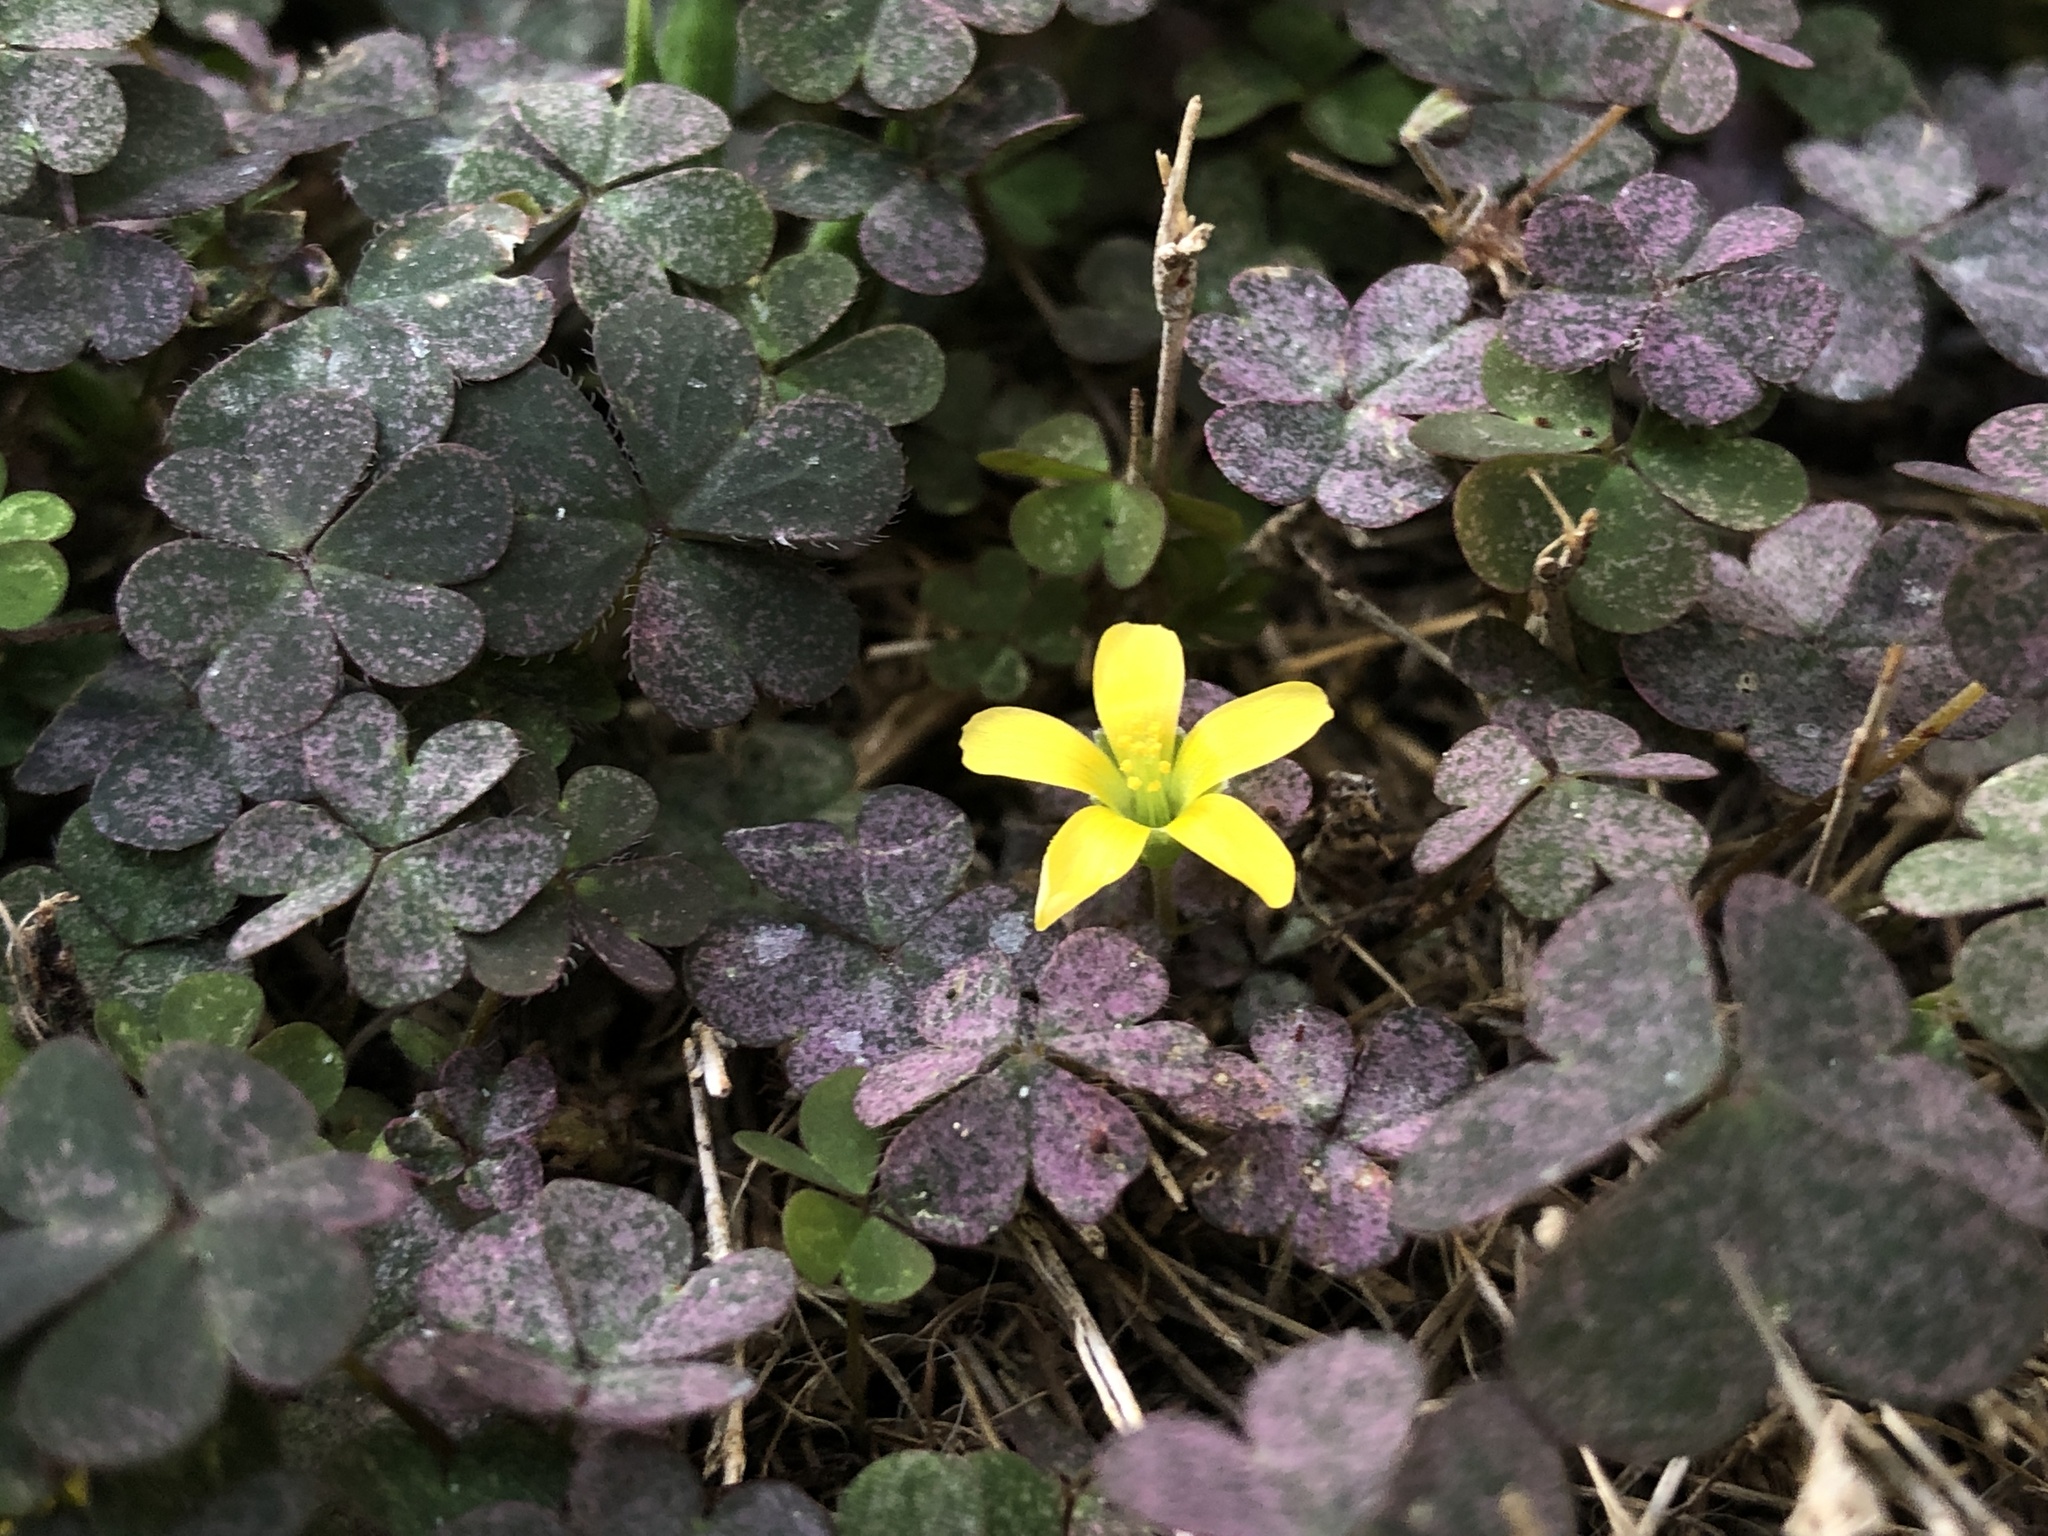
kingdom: Plantae
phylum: Tracheophyta
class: Magnoliopsida
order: Oxalidales
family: Oxalidaceae
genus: Oxalis
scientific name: Oxalis corniculata
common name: Procumbent yellow-sorrel
